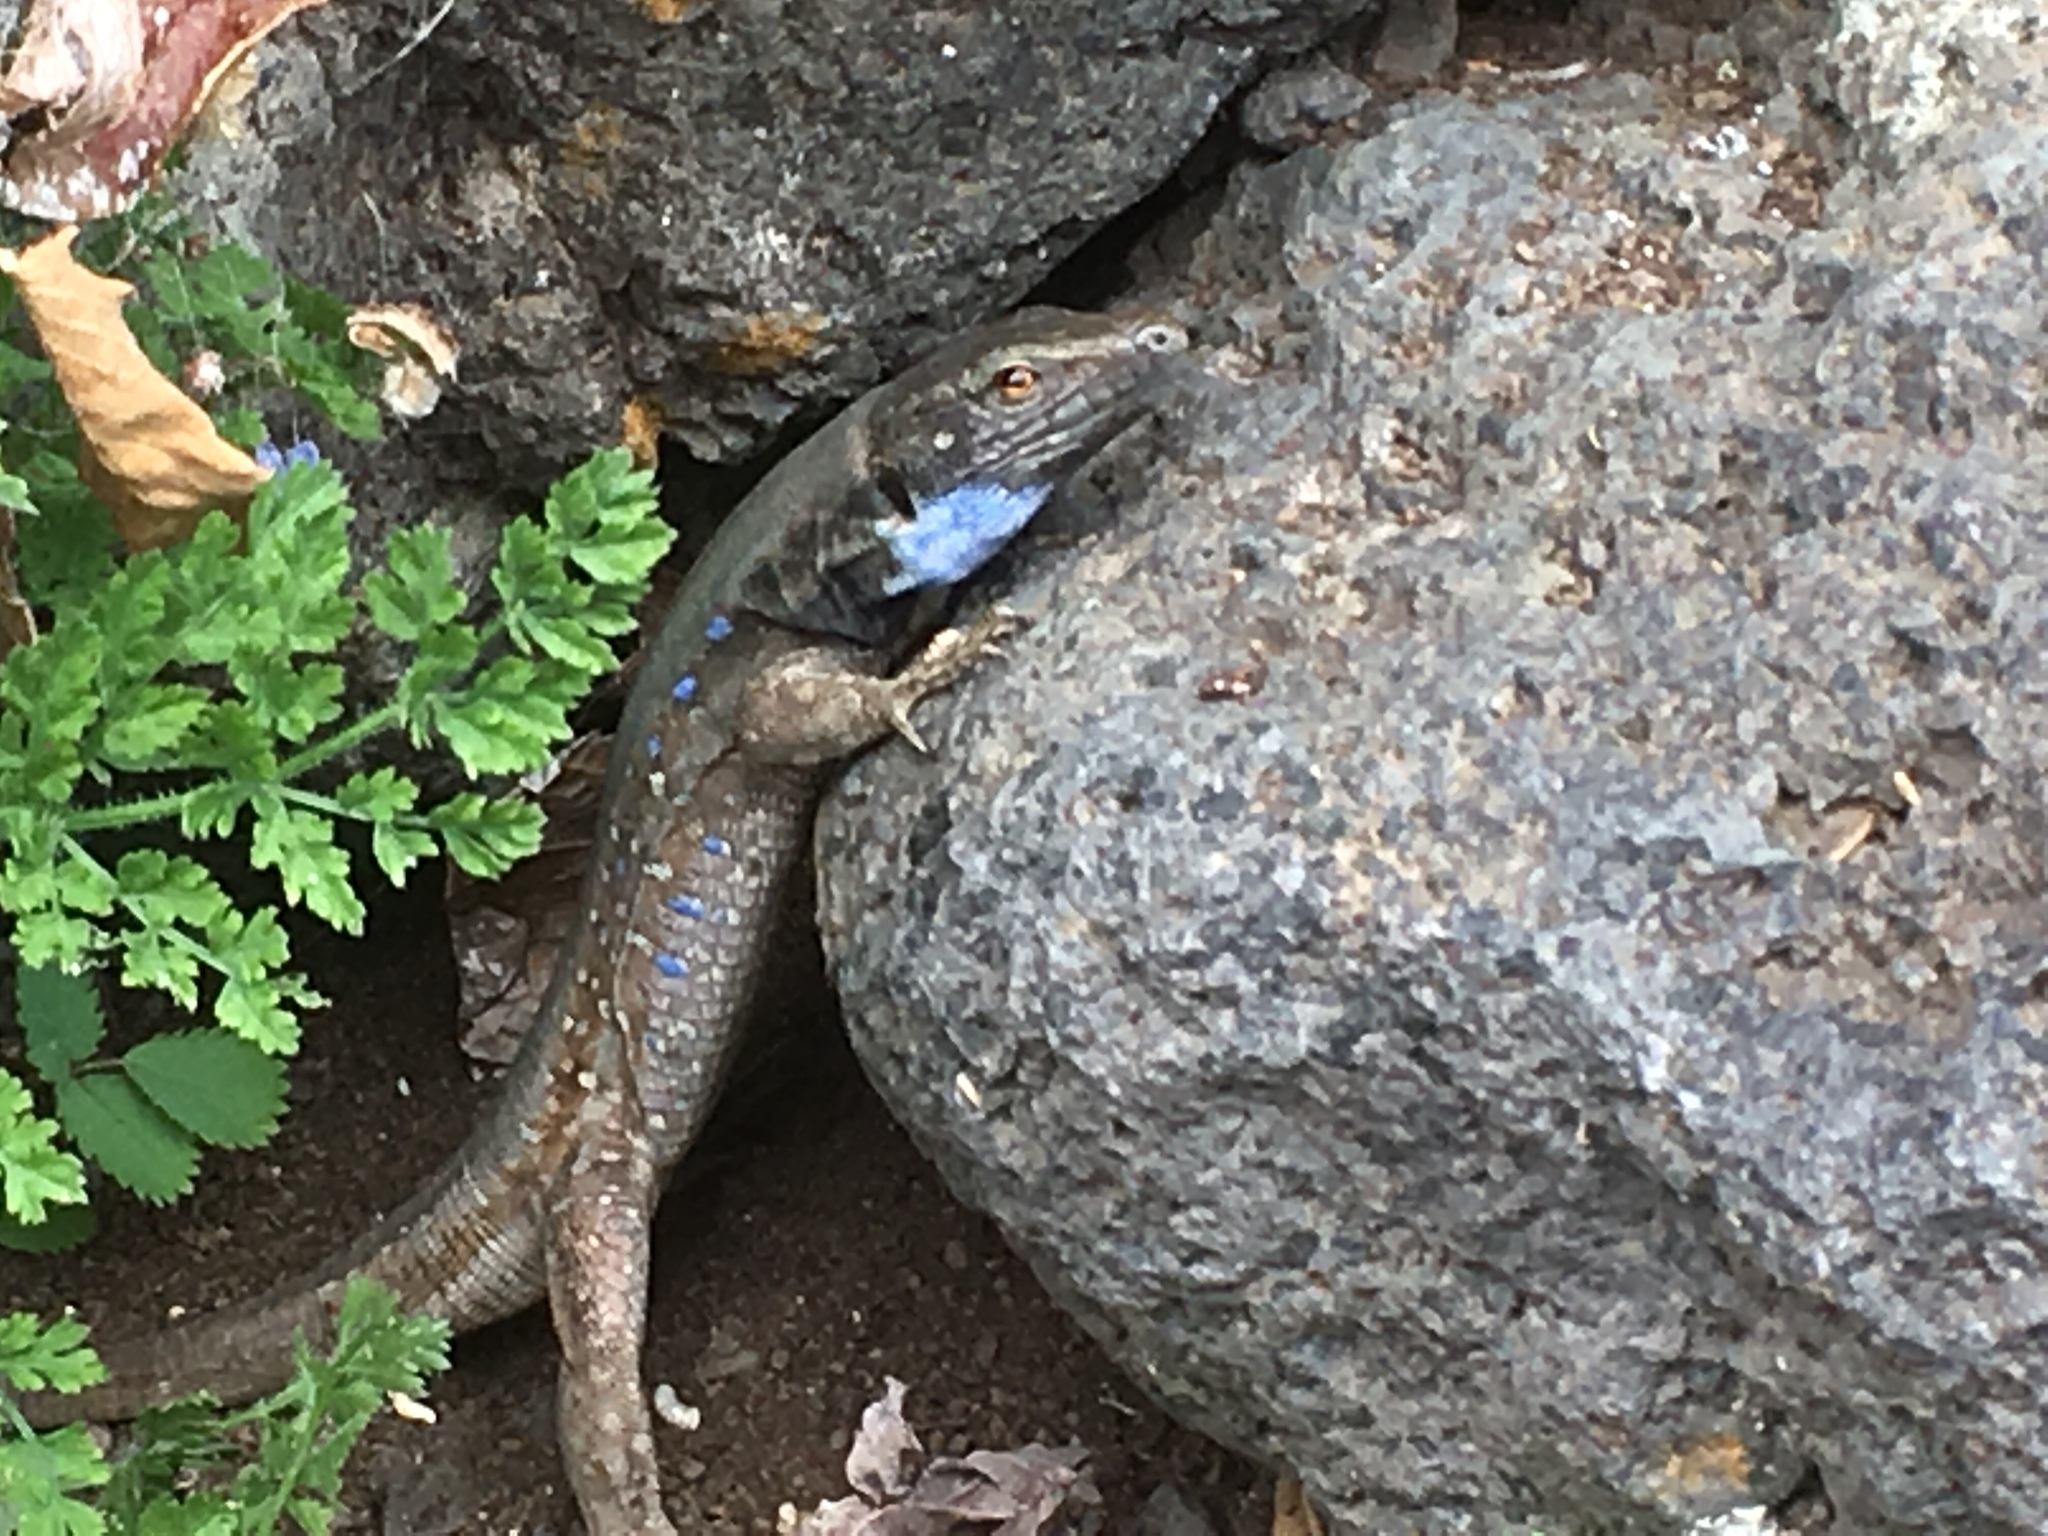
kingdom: Animalia
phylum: Chordata
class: Squamata
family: Lacertidae
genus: Gallotia
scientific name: Gallotia galloti
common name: Gallot's lizard
